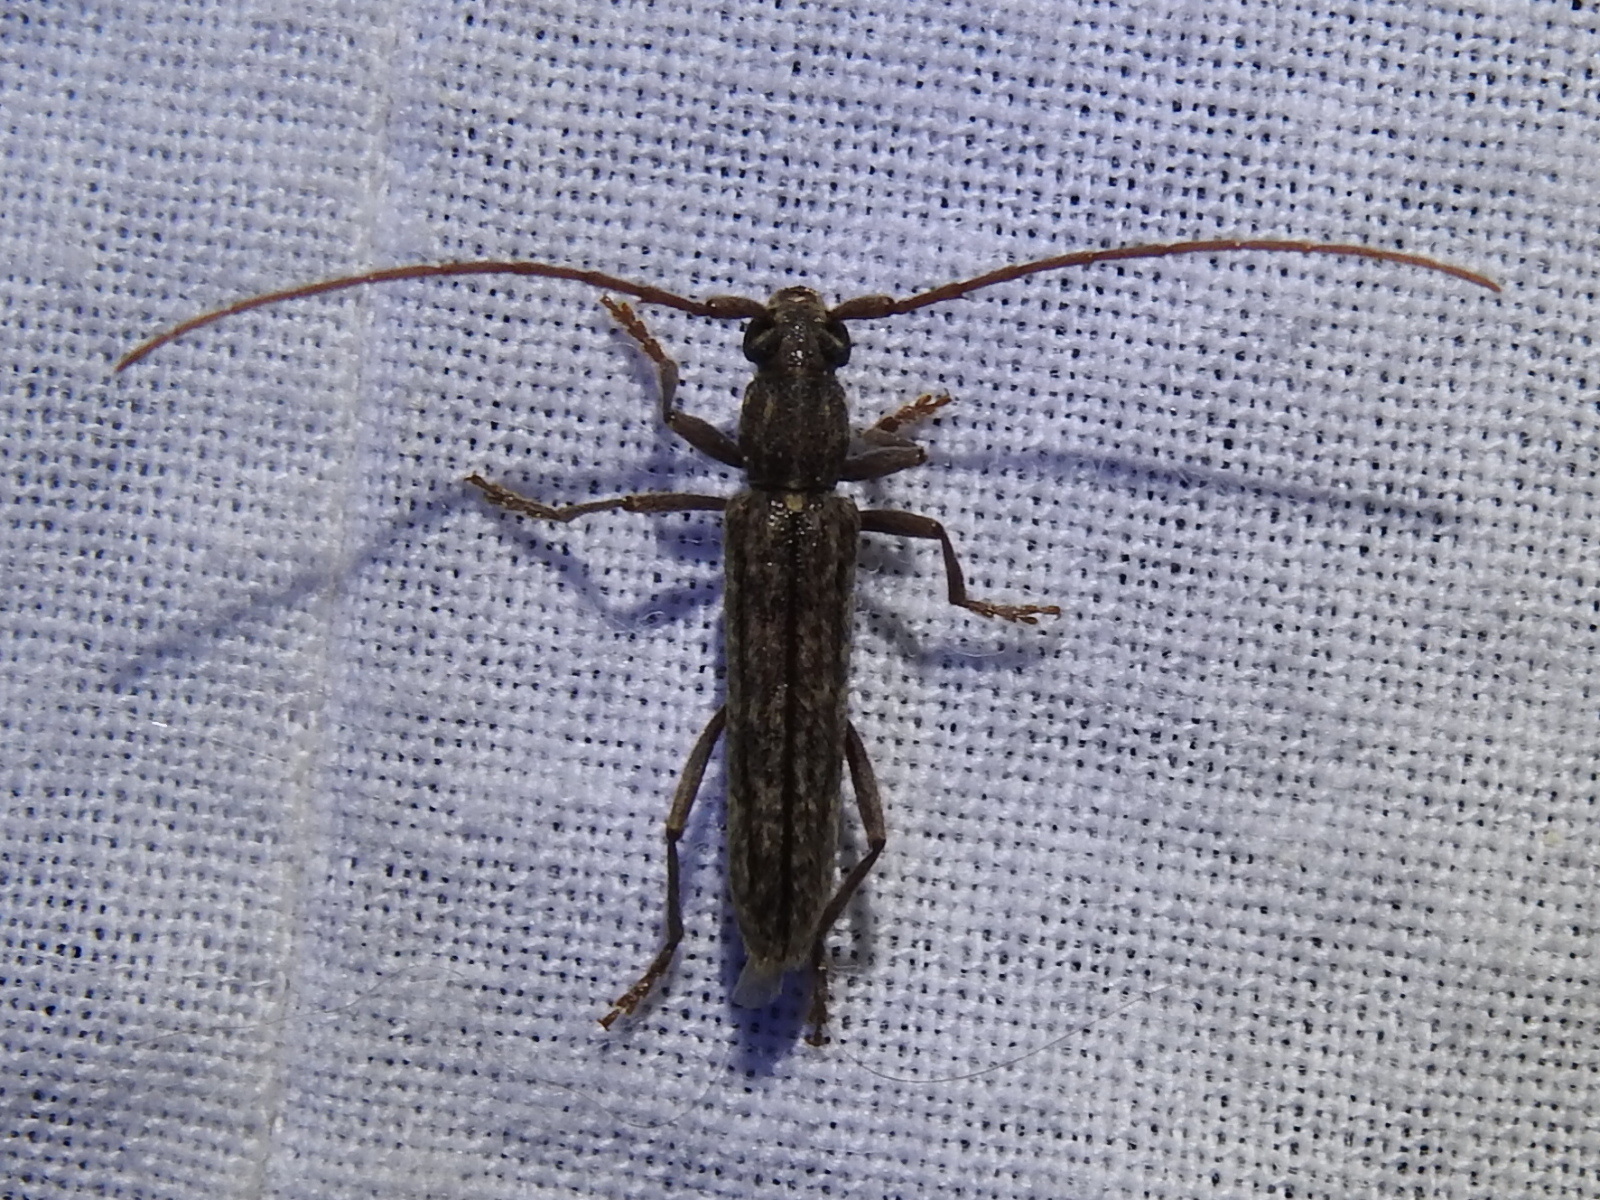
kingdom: Animalia
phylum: Arthropoda
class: Insecta
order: Coleoptera
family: Cerambycidae
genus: Anelaphus
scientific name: Anelaphus villosus
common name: Twig pruner
